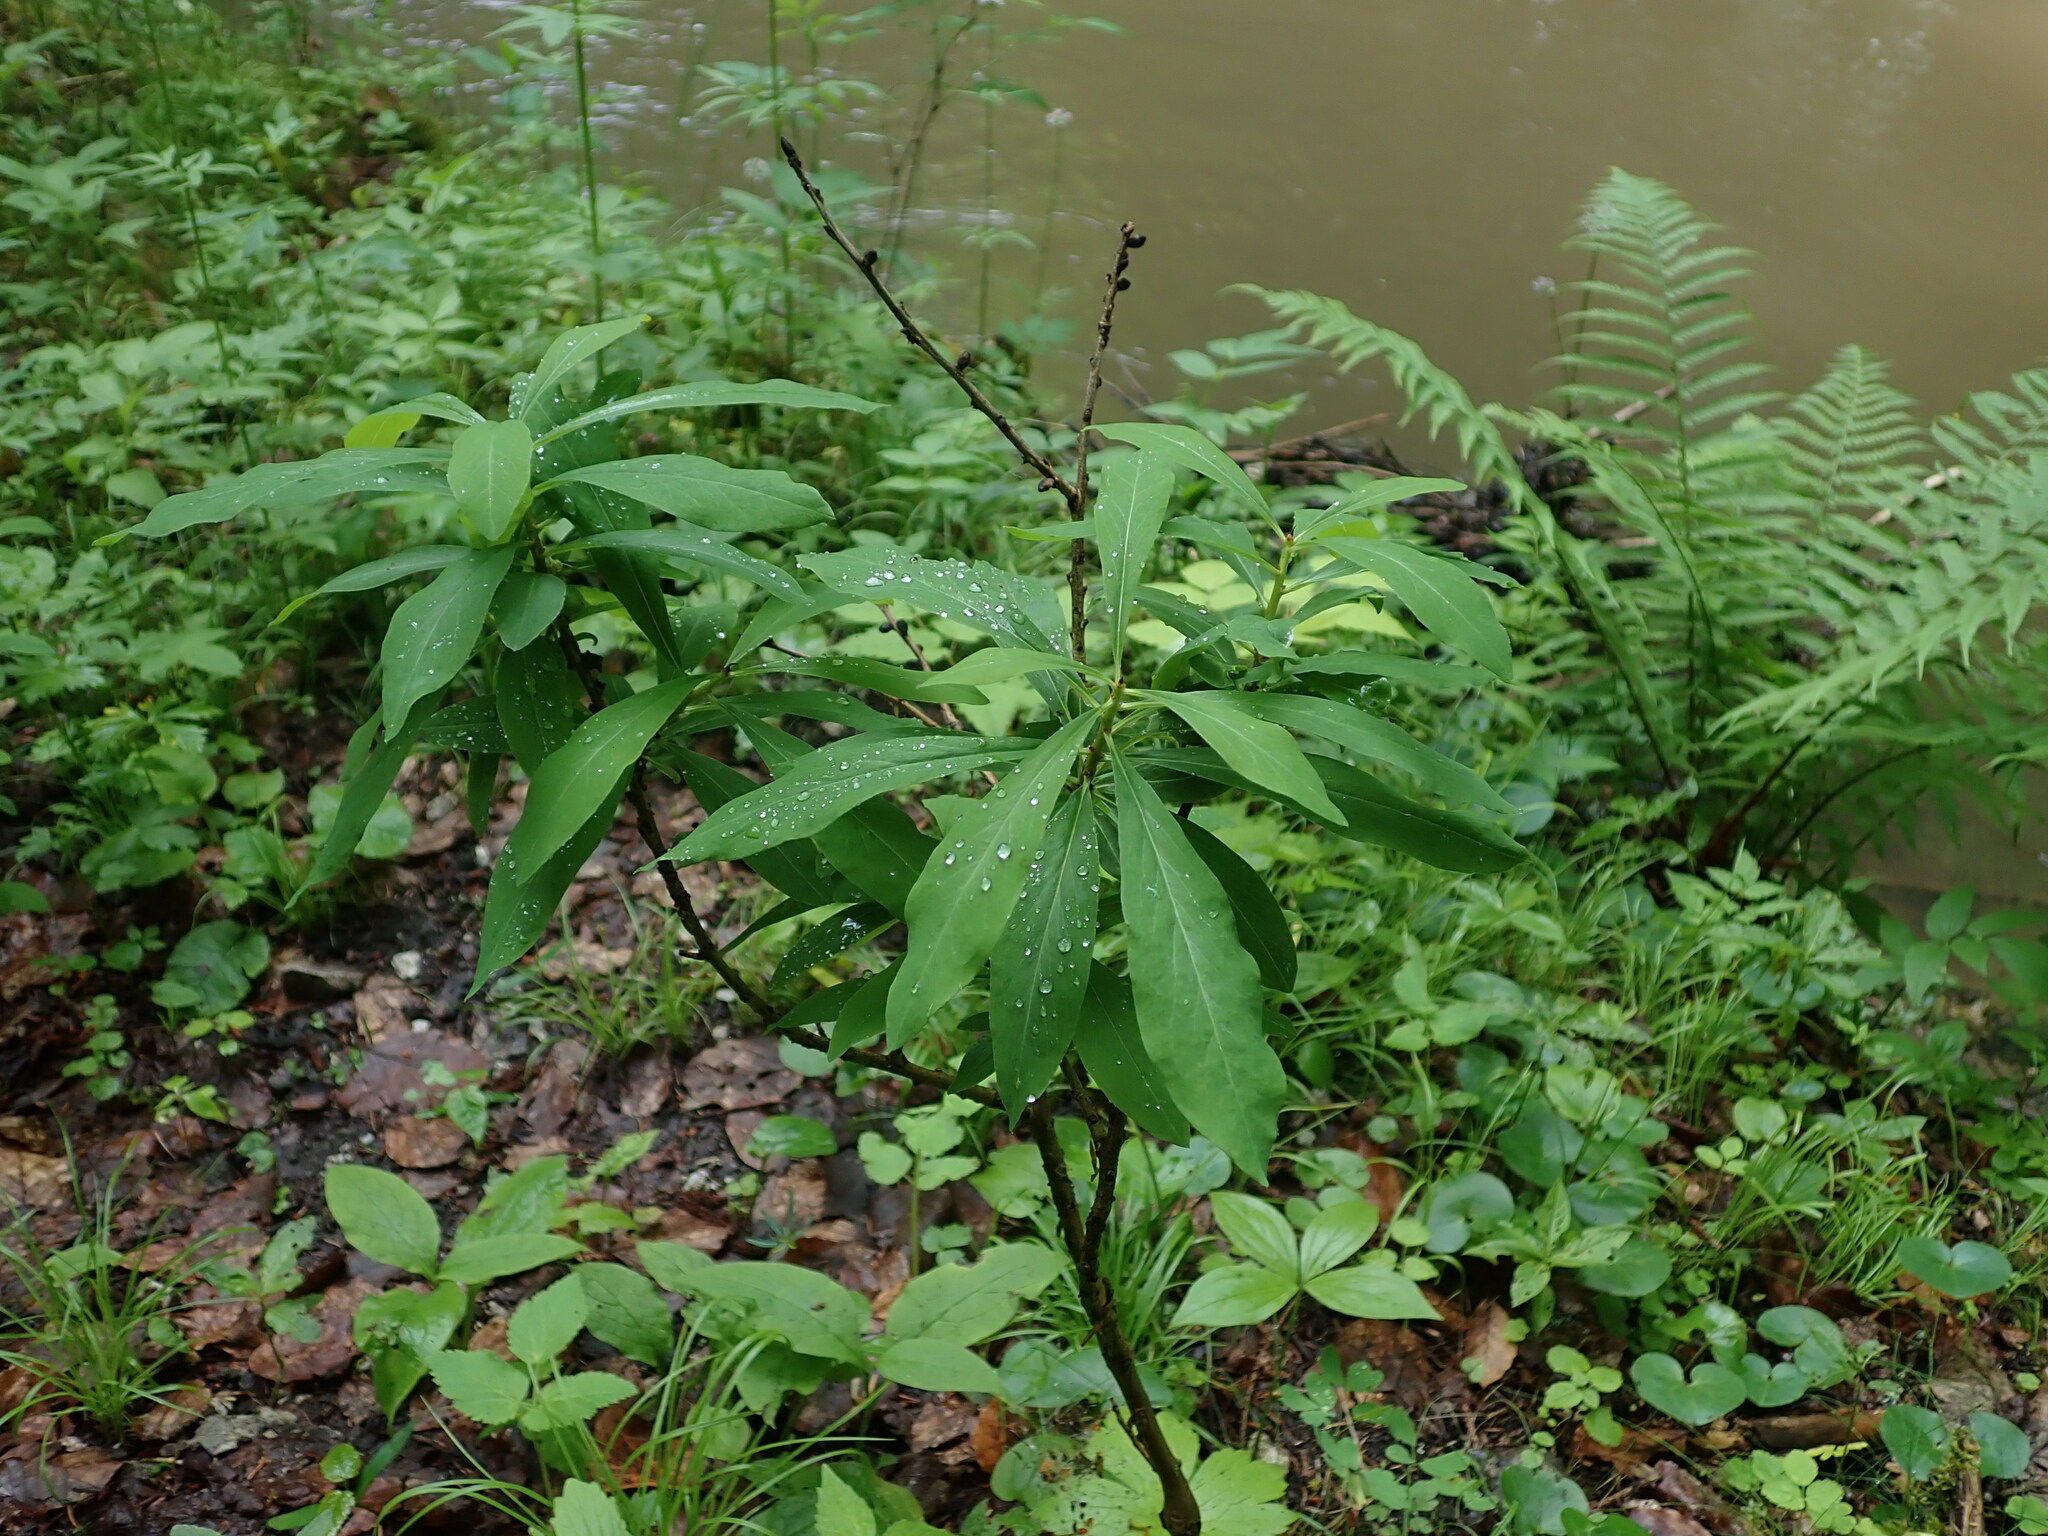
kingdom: Plantae
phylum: Tracheophyta
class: Magnoliopsida
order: Malvales
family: Thymelaeaceae
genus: Daphne
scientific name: Daphne mezereum
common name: Mezereon
